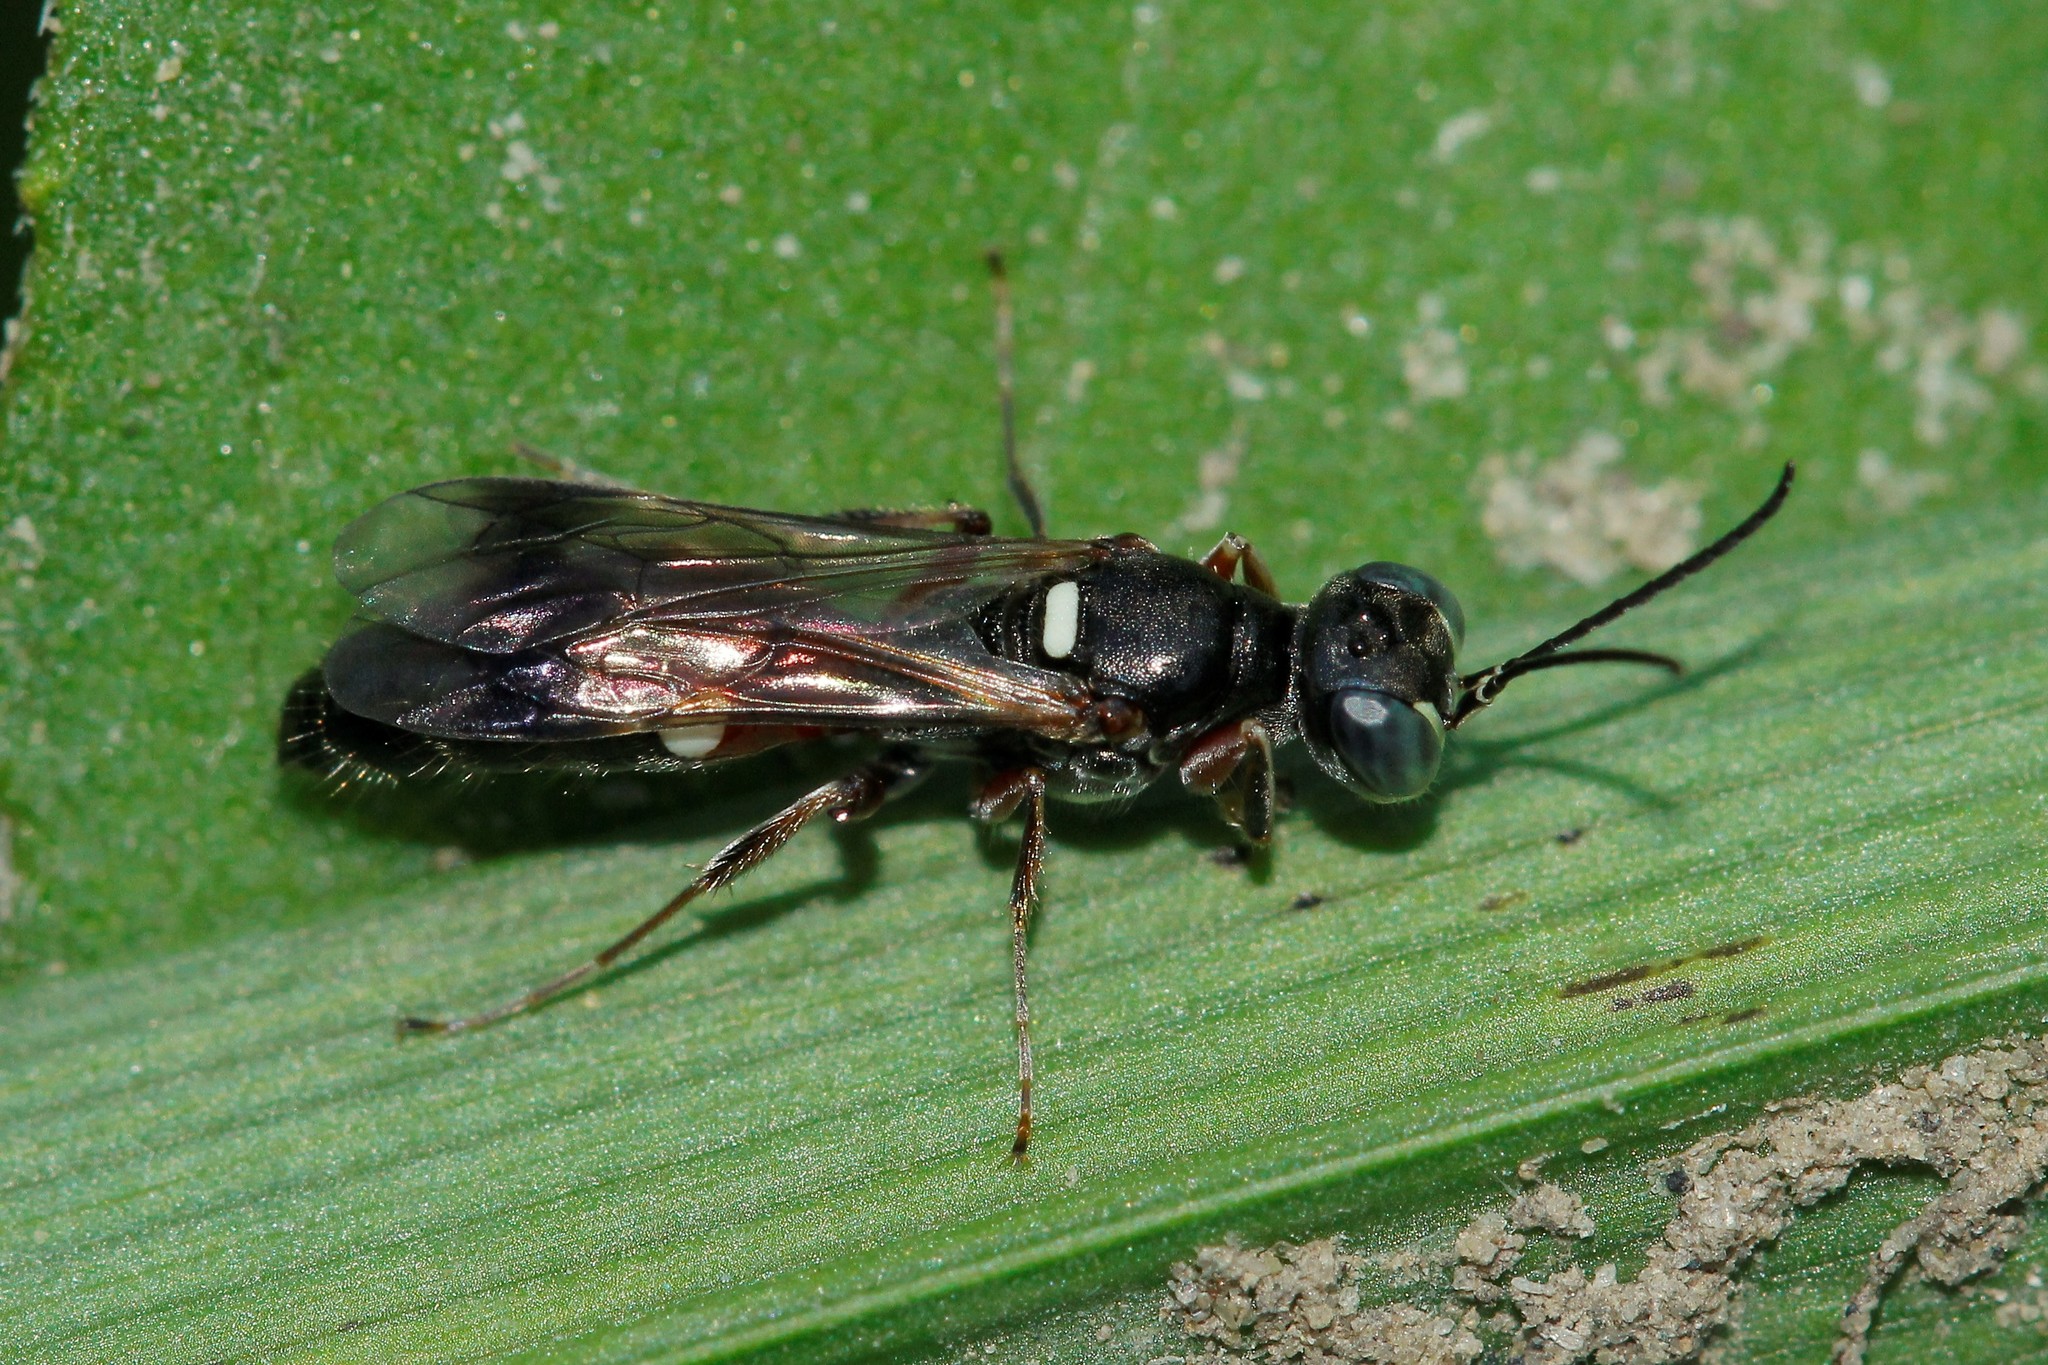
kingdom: Animalia
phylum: Arthropoda
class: Insecta
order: Hymenoptera
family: Crabronidae
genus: Alysson
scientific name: Alysson spinosus
